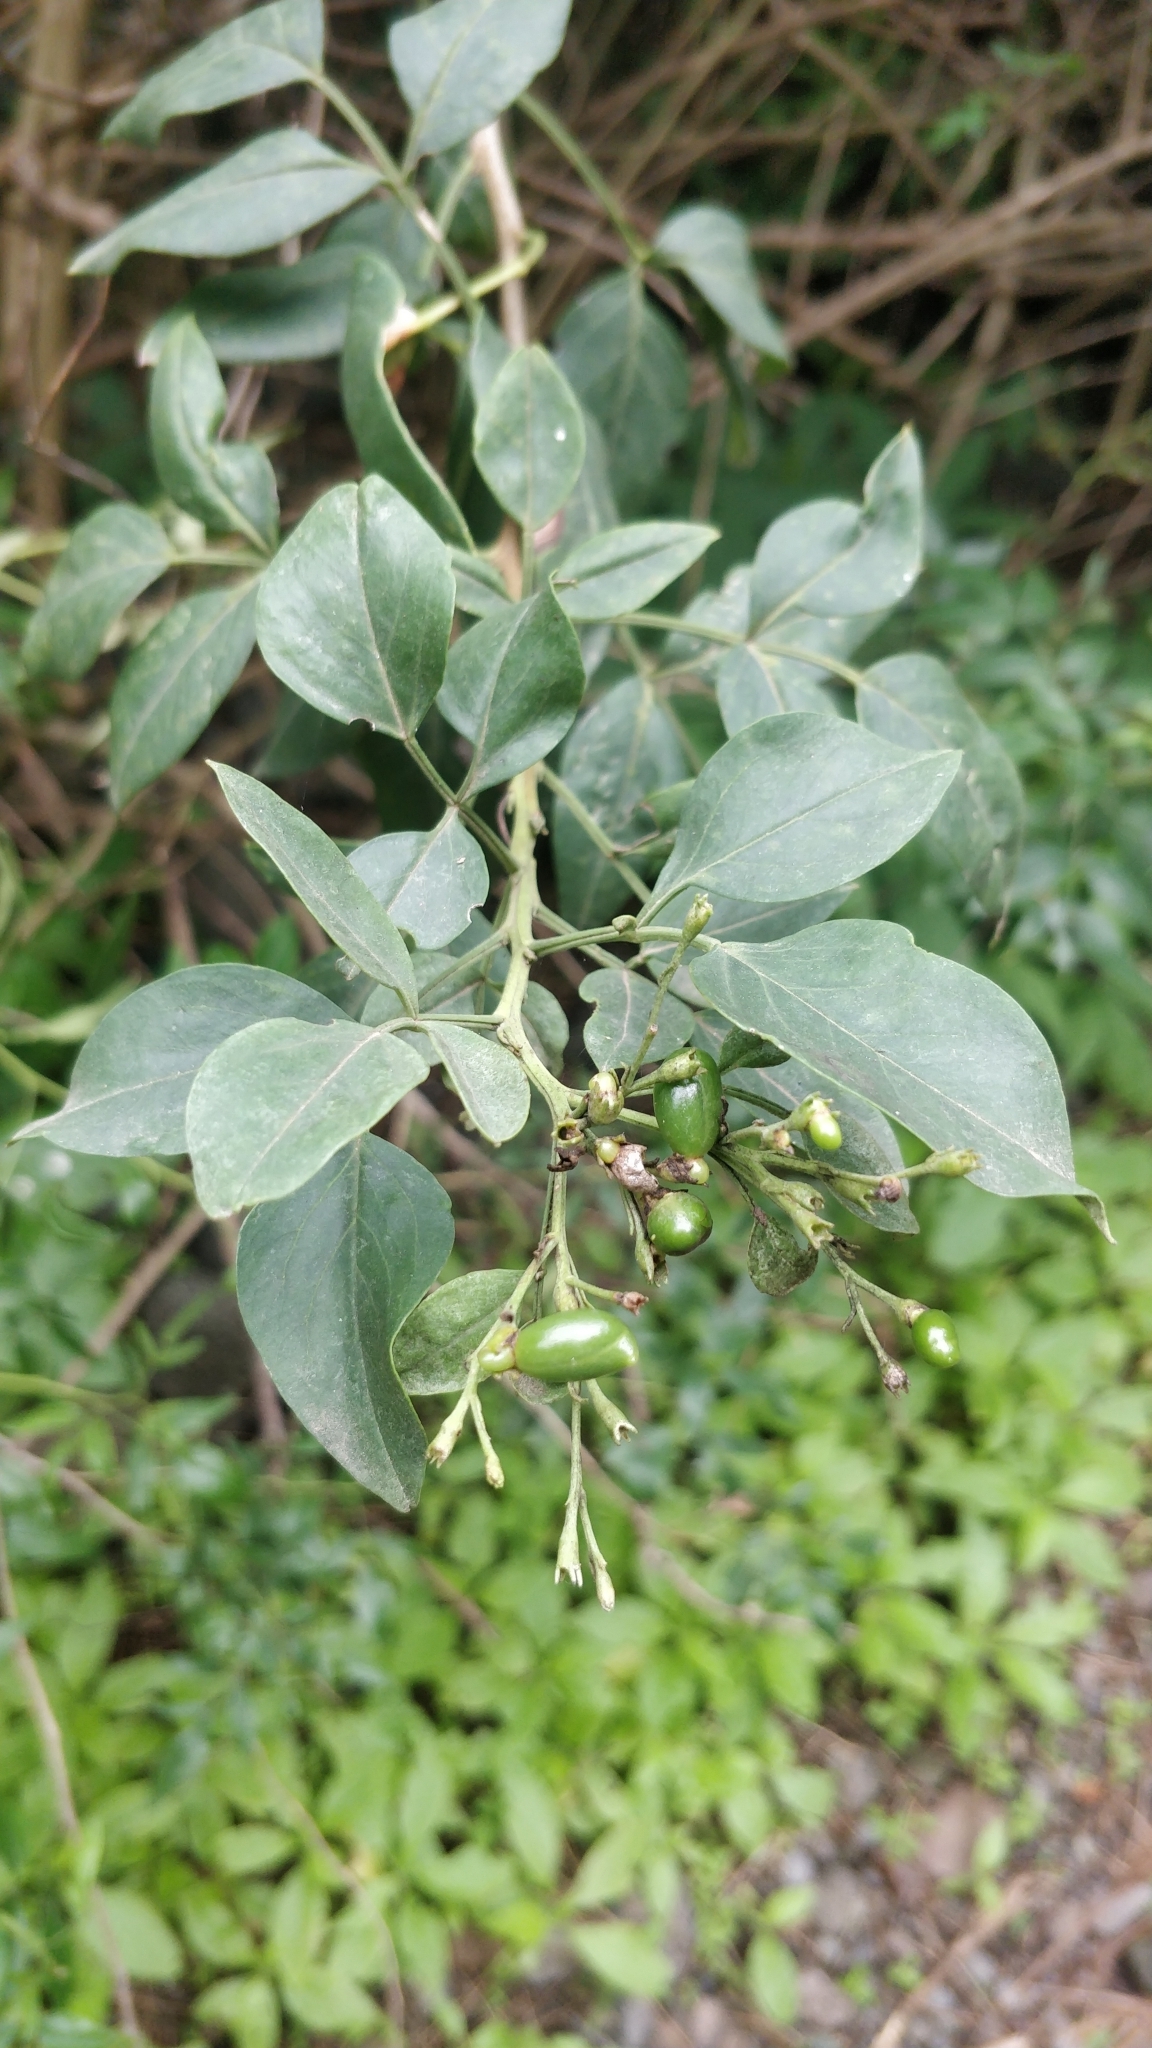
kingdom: Plantae
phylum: Tracheophyta
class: Magnoliopsida
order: Lamiales
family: Oleaceae
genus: Chrysojasminum
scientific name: Chrysojasminum odoratissimum
